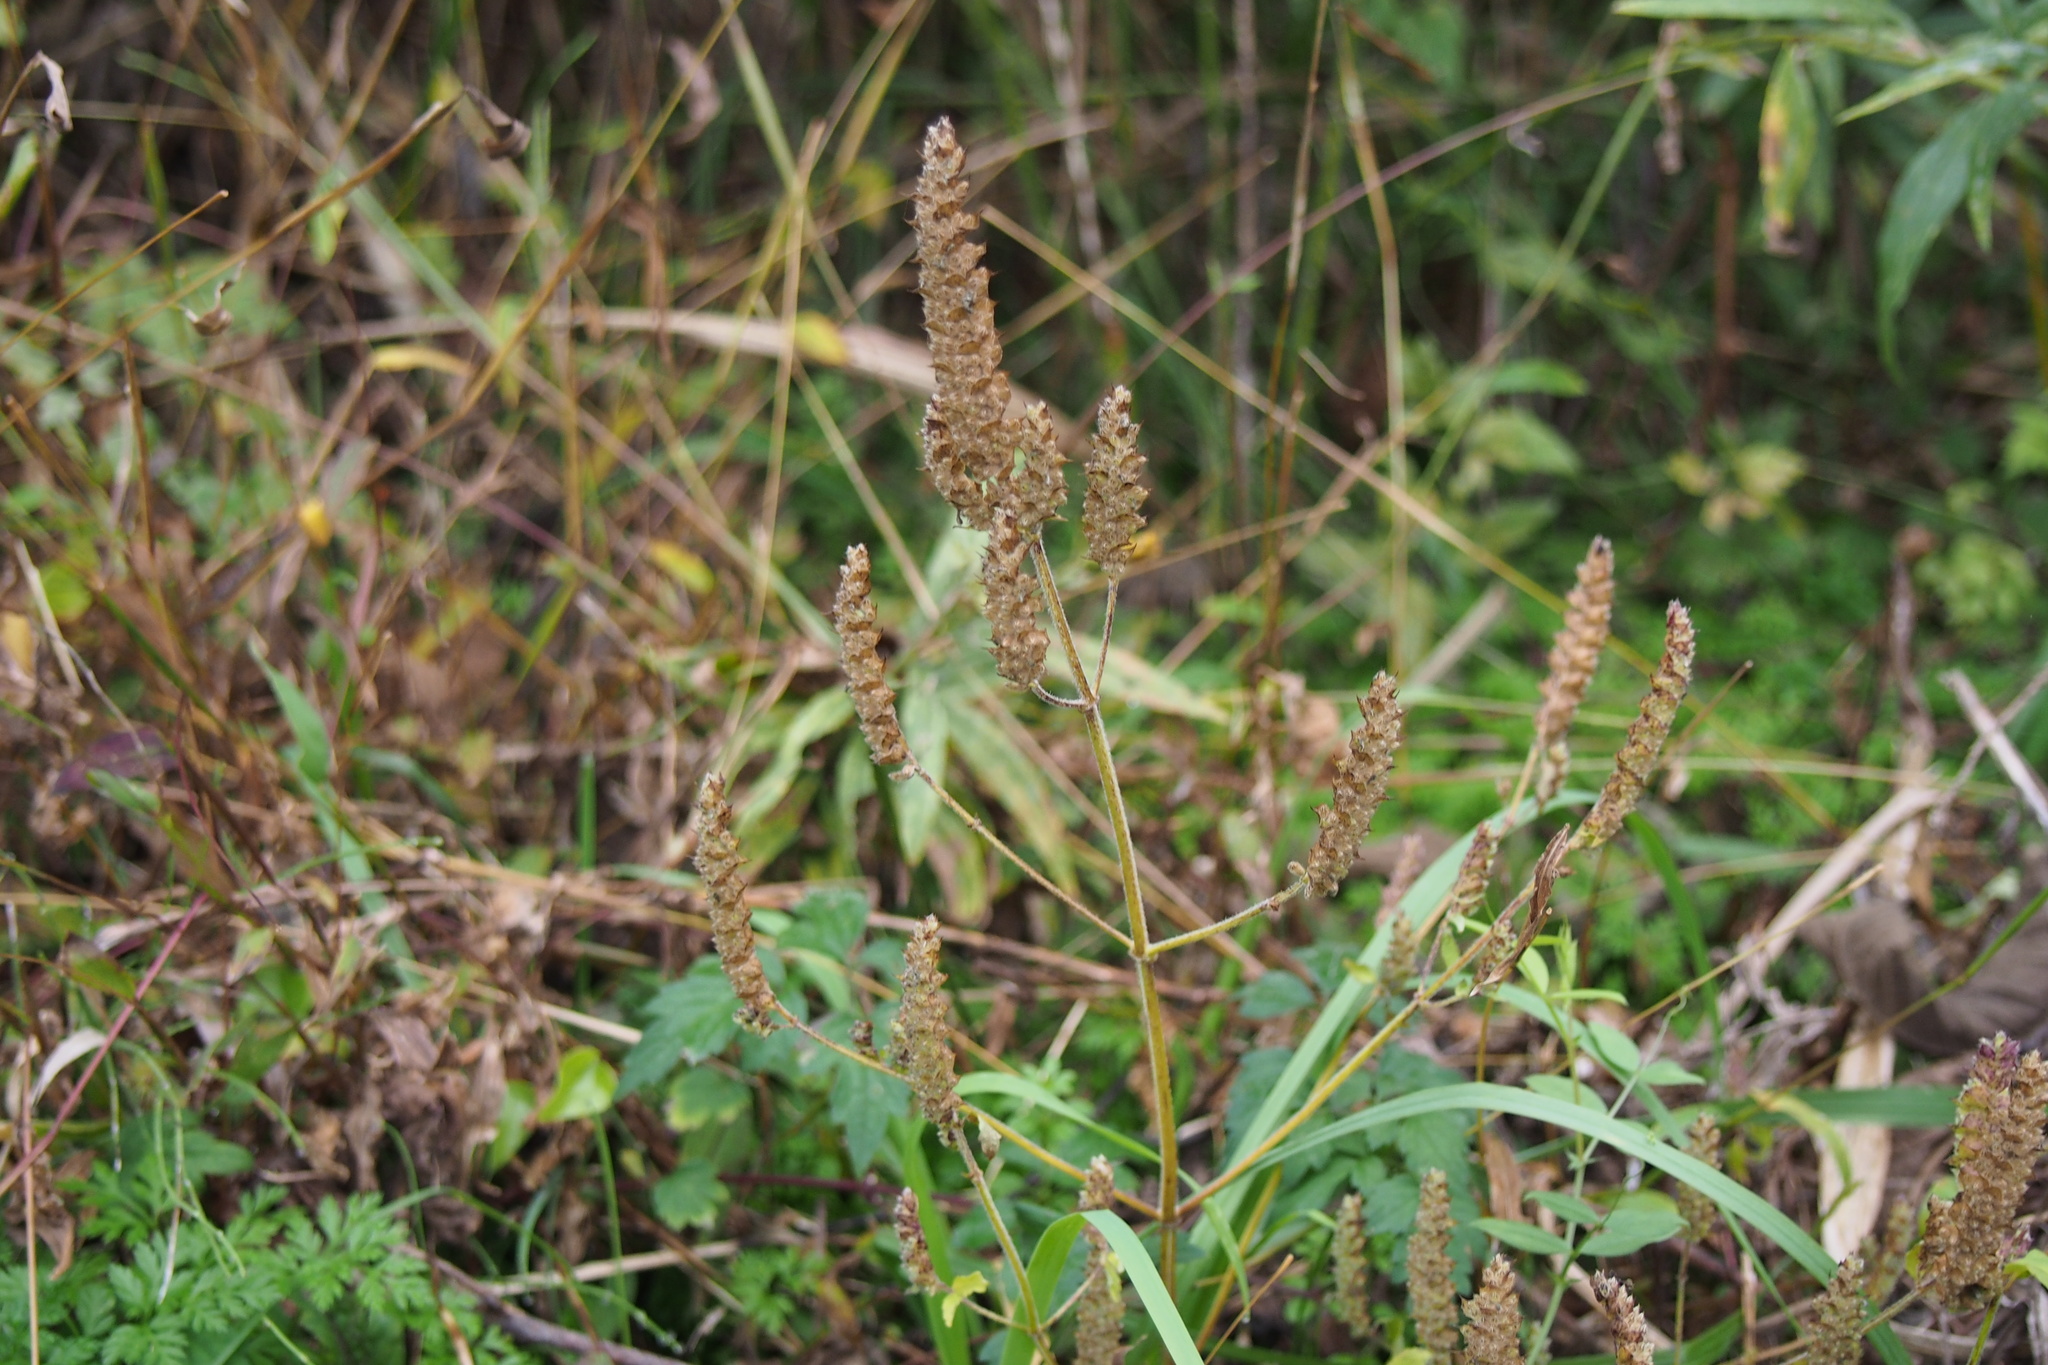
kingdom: Plantae
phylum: Tracheophyta
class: Magnoliopsida
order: Lamiales
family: Lamiaceae
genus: Elsholtzia
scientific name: Elsholtzia ciliata
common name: Ciliate elsholtzia
